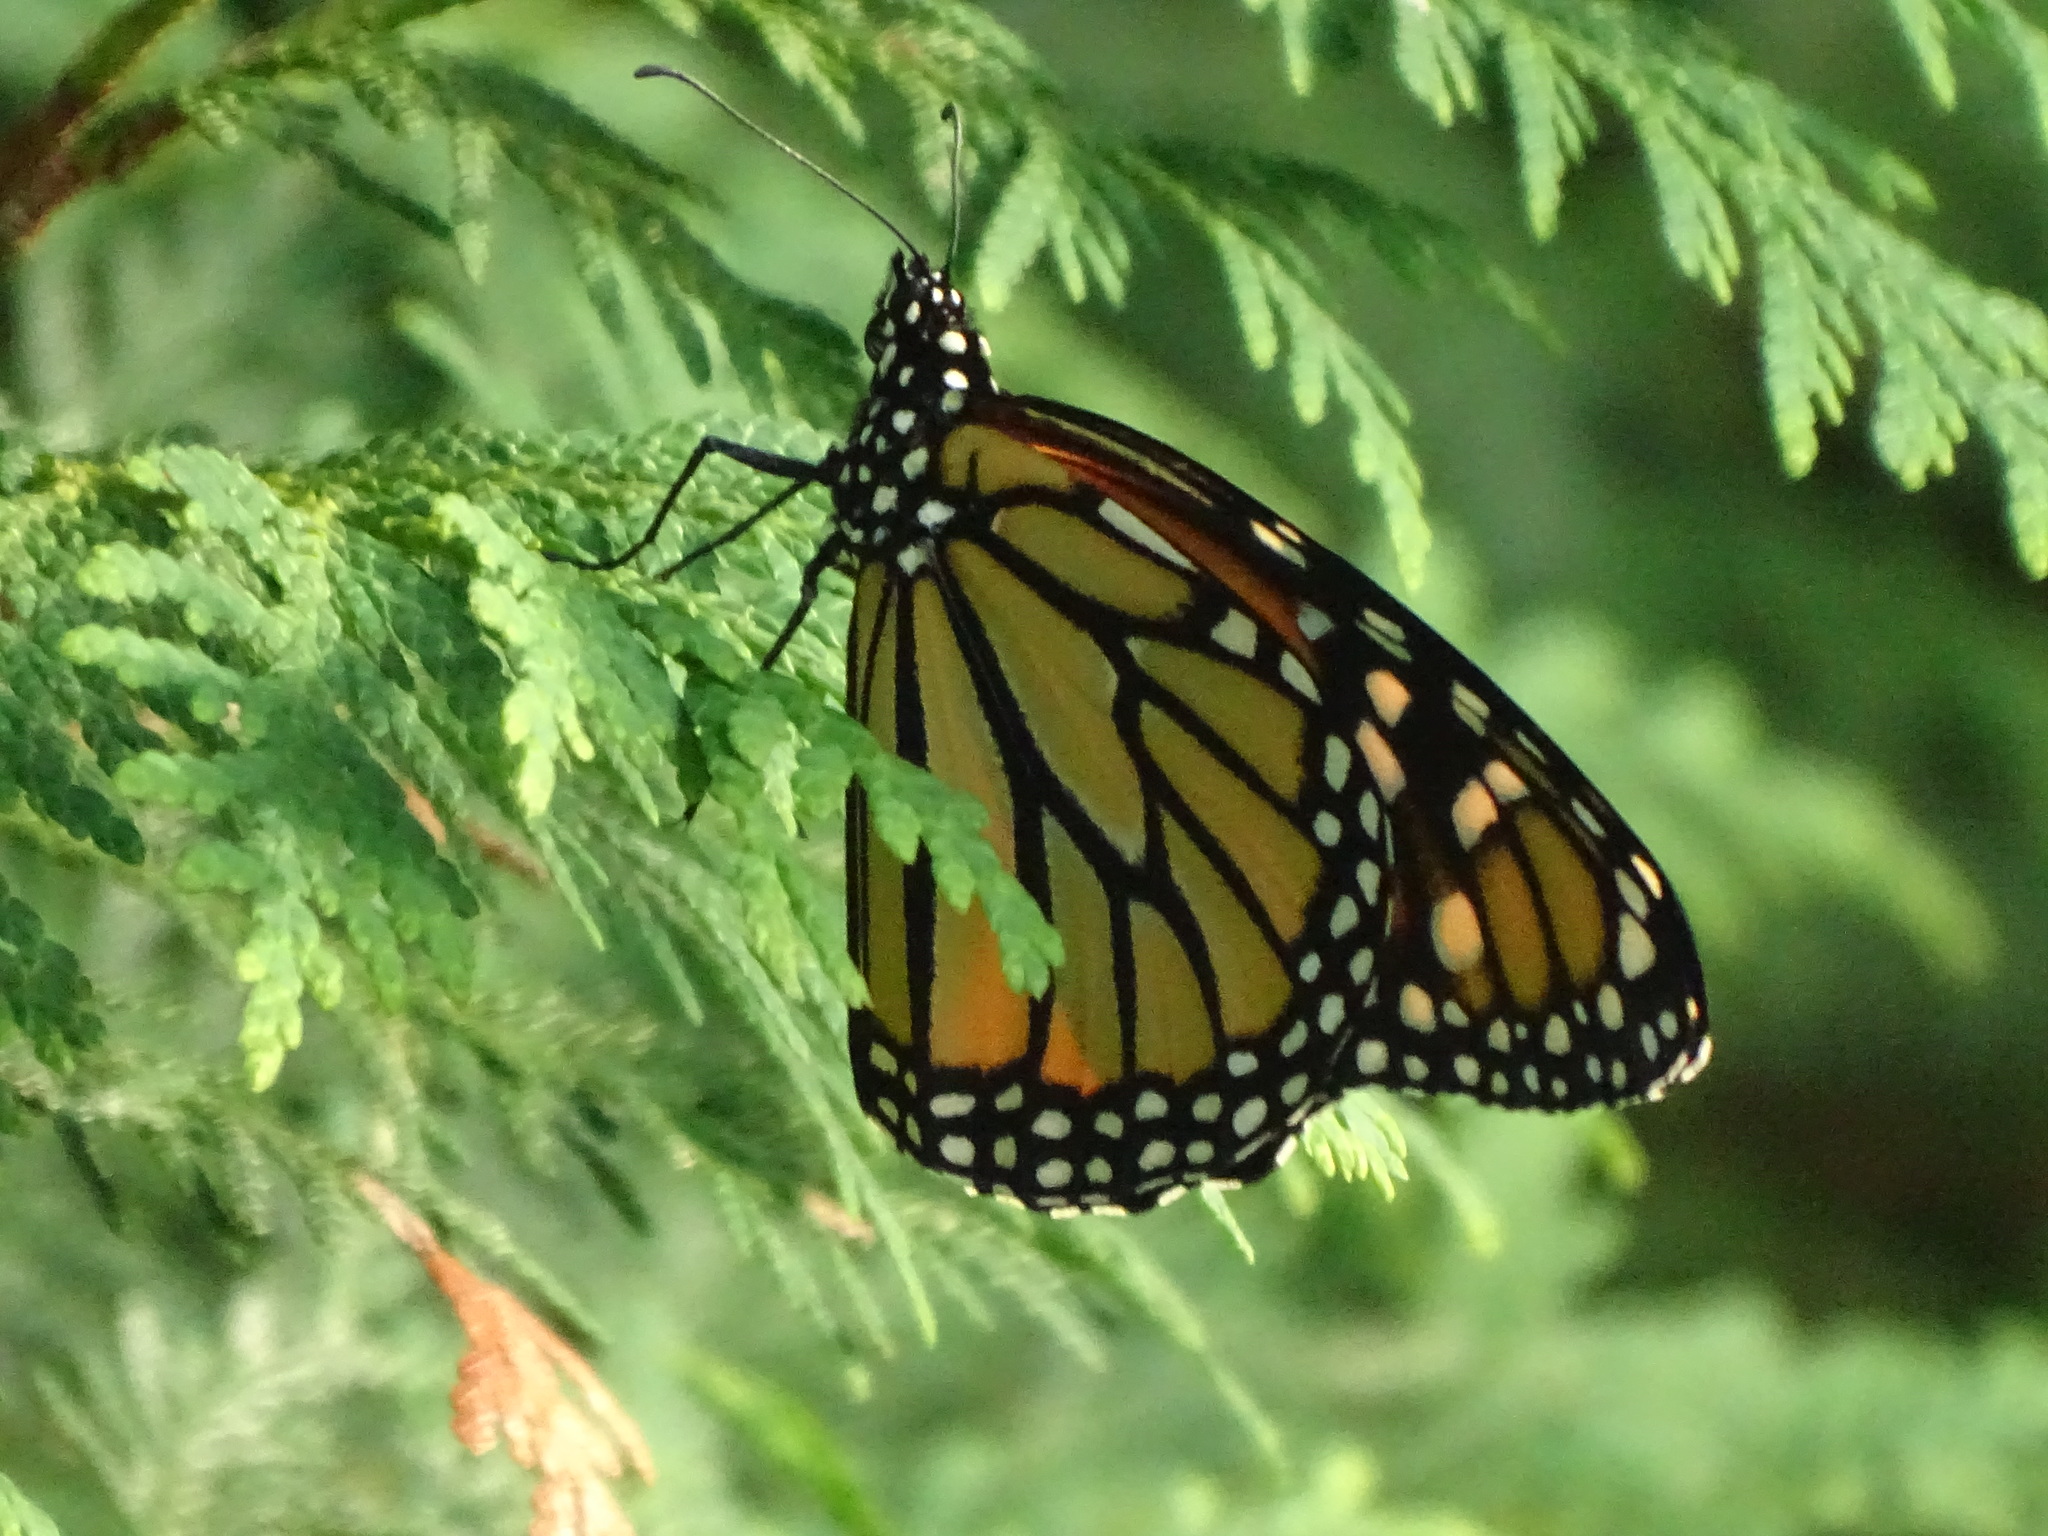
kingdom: Animalia
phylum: Arthropoda
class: Insecta
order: Lepidoptera
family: Nymphalidae
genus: Danaus
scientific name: Danaus plexippus
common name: Monarch
